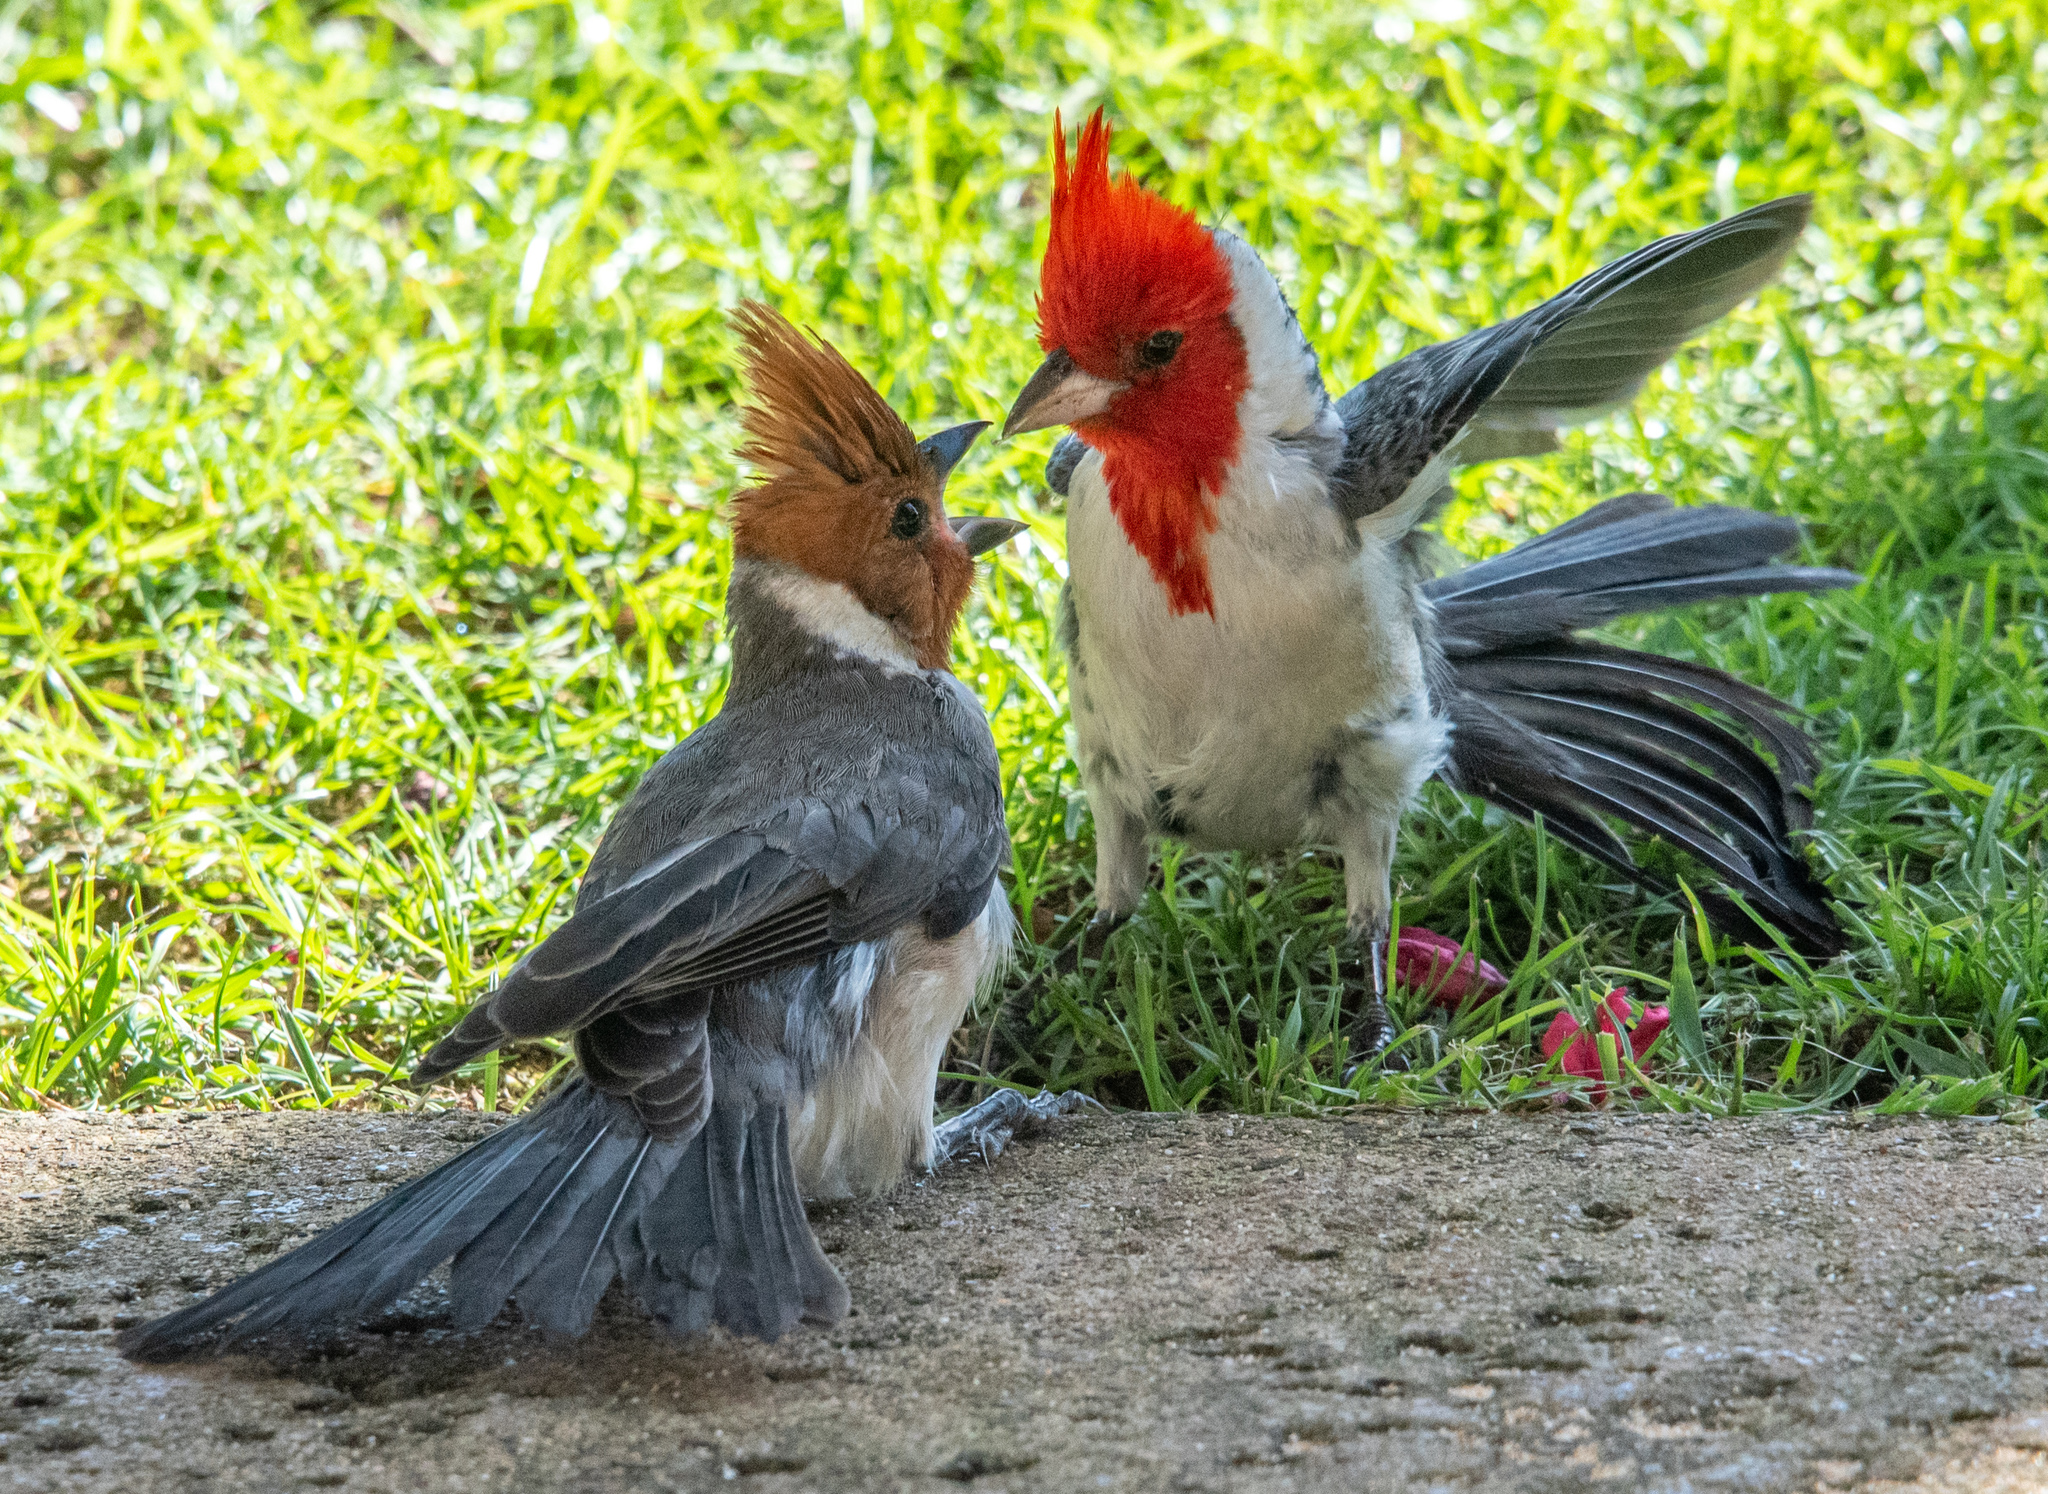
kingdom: Animalia
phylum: Chordata
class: Aves
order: Passeriformes
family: Thraupidae
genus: Paroaria
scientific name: Paroaria coronata
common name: Red-crested cardinal
